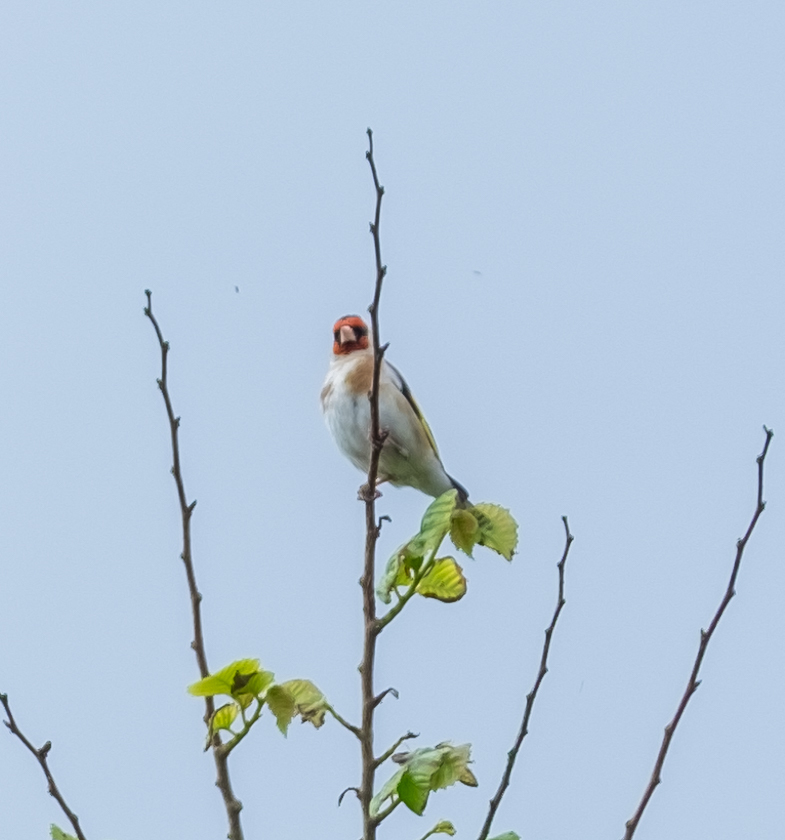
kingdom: Animalia
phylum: Chordata
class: Aves
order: Passeriformes
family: Fringillidae
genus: Carduelis
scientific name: Carduelis carduelis
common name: European goldfinch
